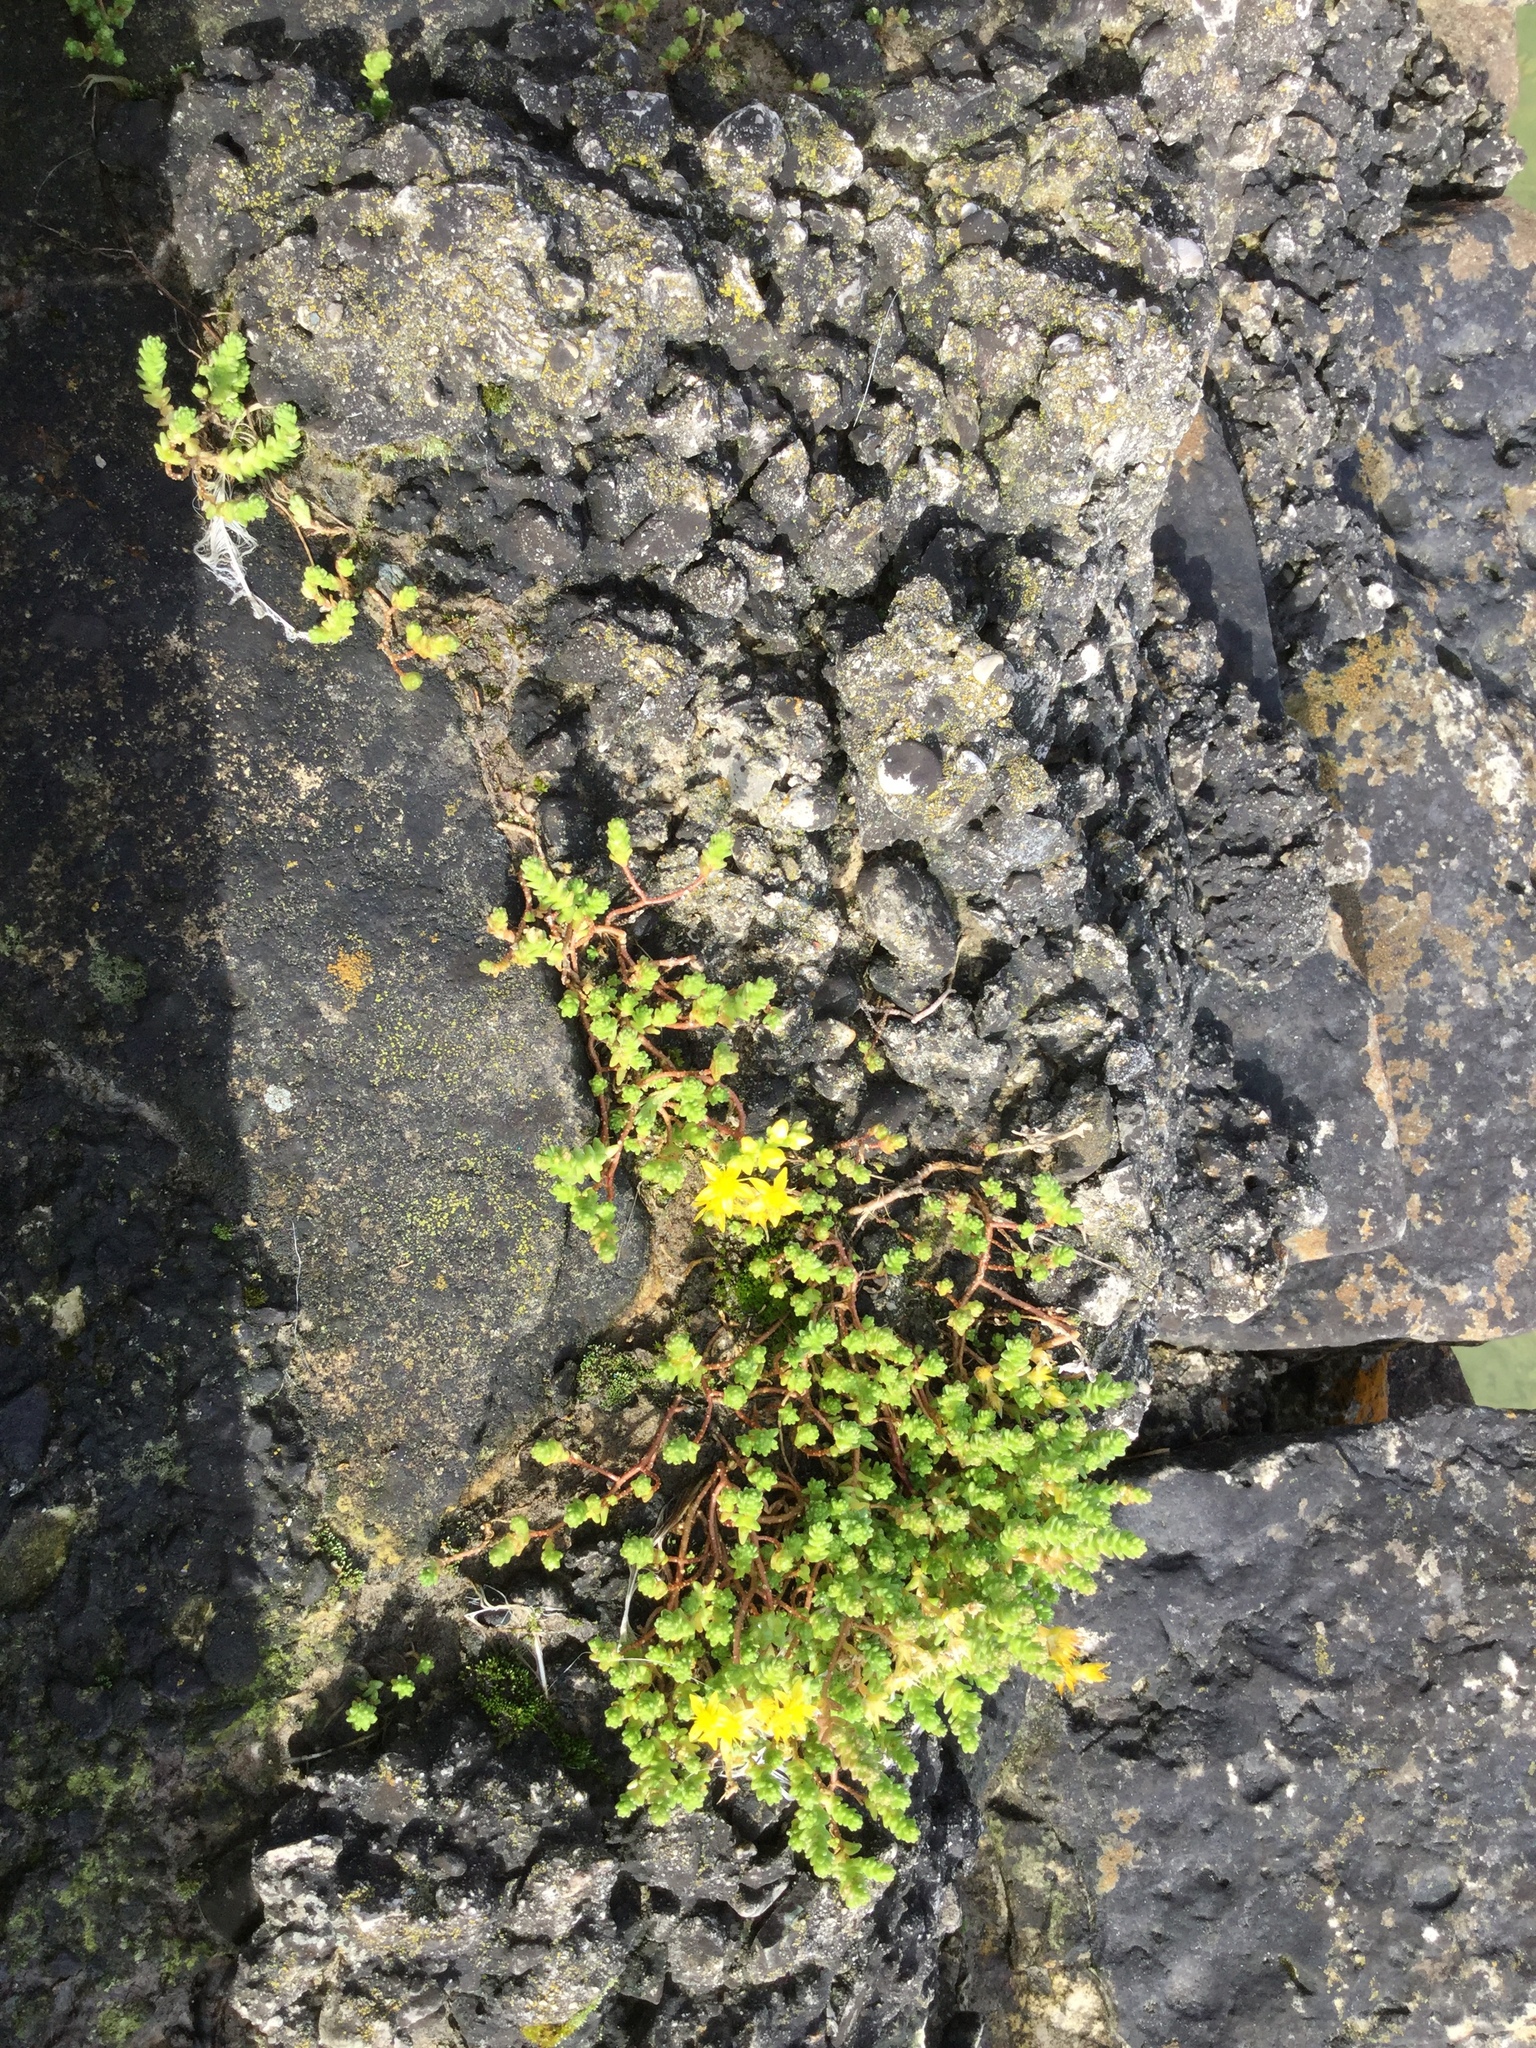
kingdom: Plantae
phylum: Tracheophyta
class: Magnoliopsida
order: Saxifragales
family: Crassulaceae
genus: Sedum
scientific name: Sedum acre
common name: Biting stonecrop
